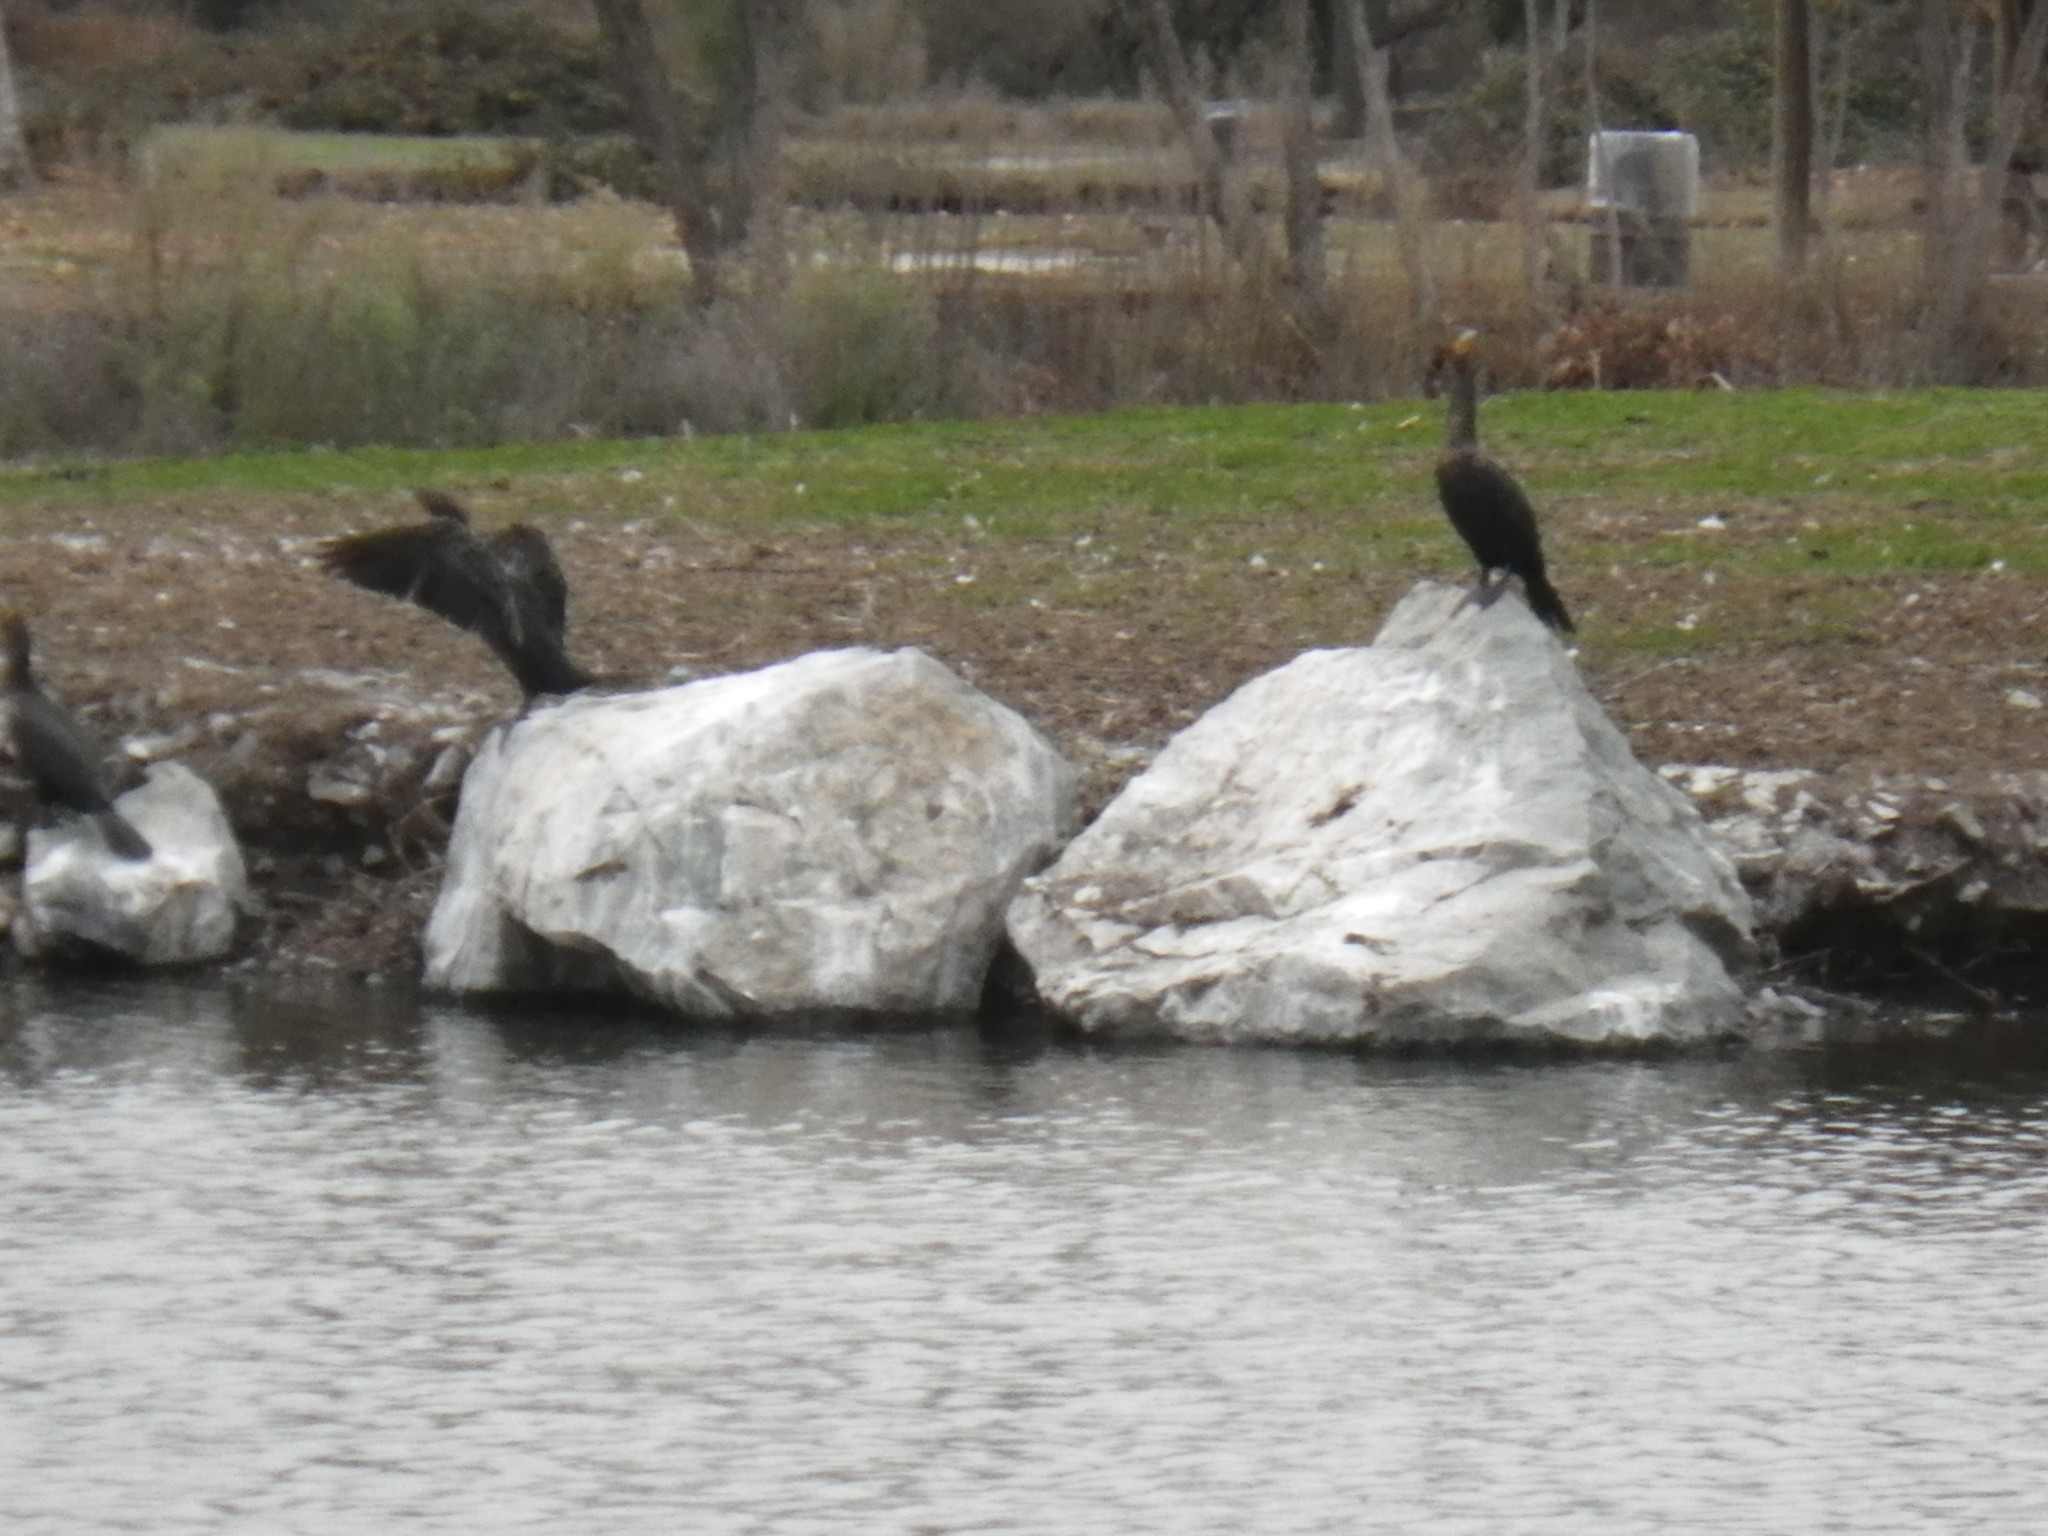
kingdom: Animalia
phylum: Chordata
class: Aves
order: Suliformes
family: Phalacrocoracidae
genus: Phalacrocorax
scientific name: Phalacrocorax auritus
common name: Double-crested cormorant
